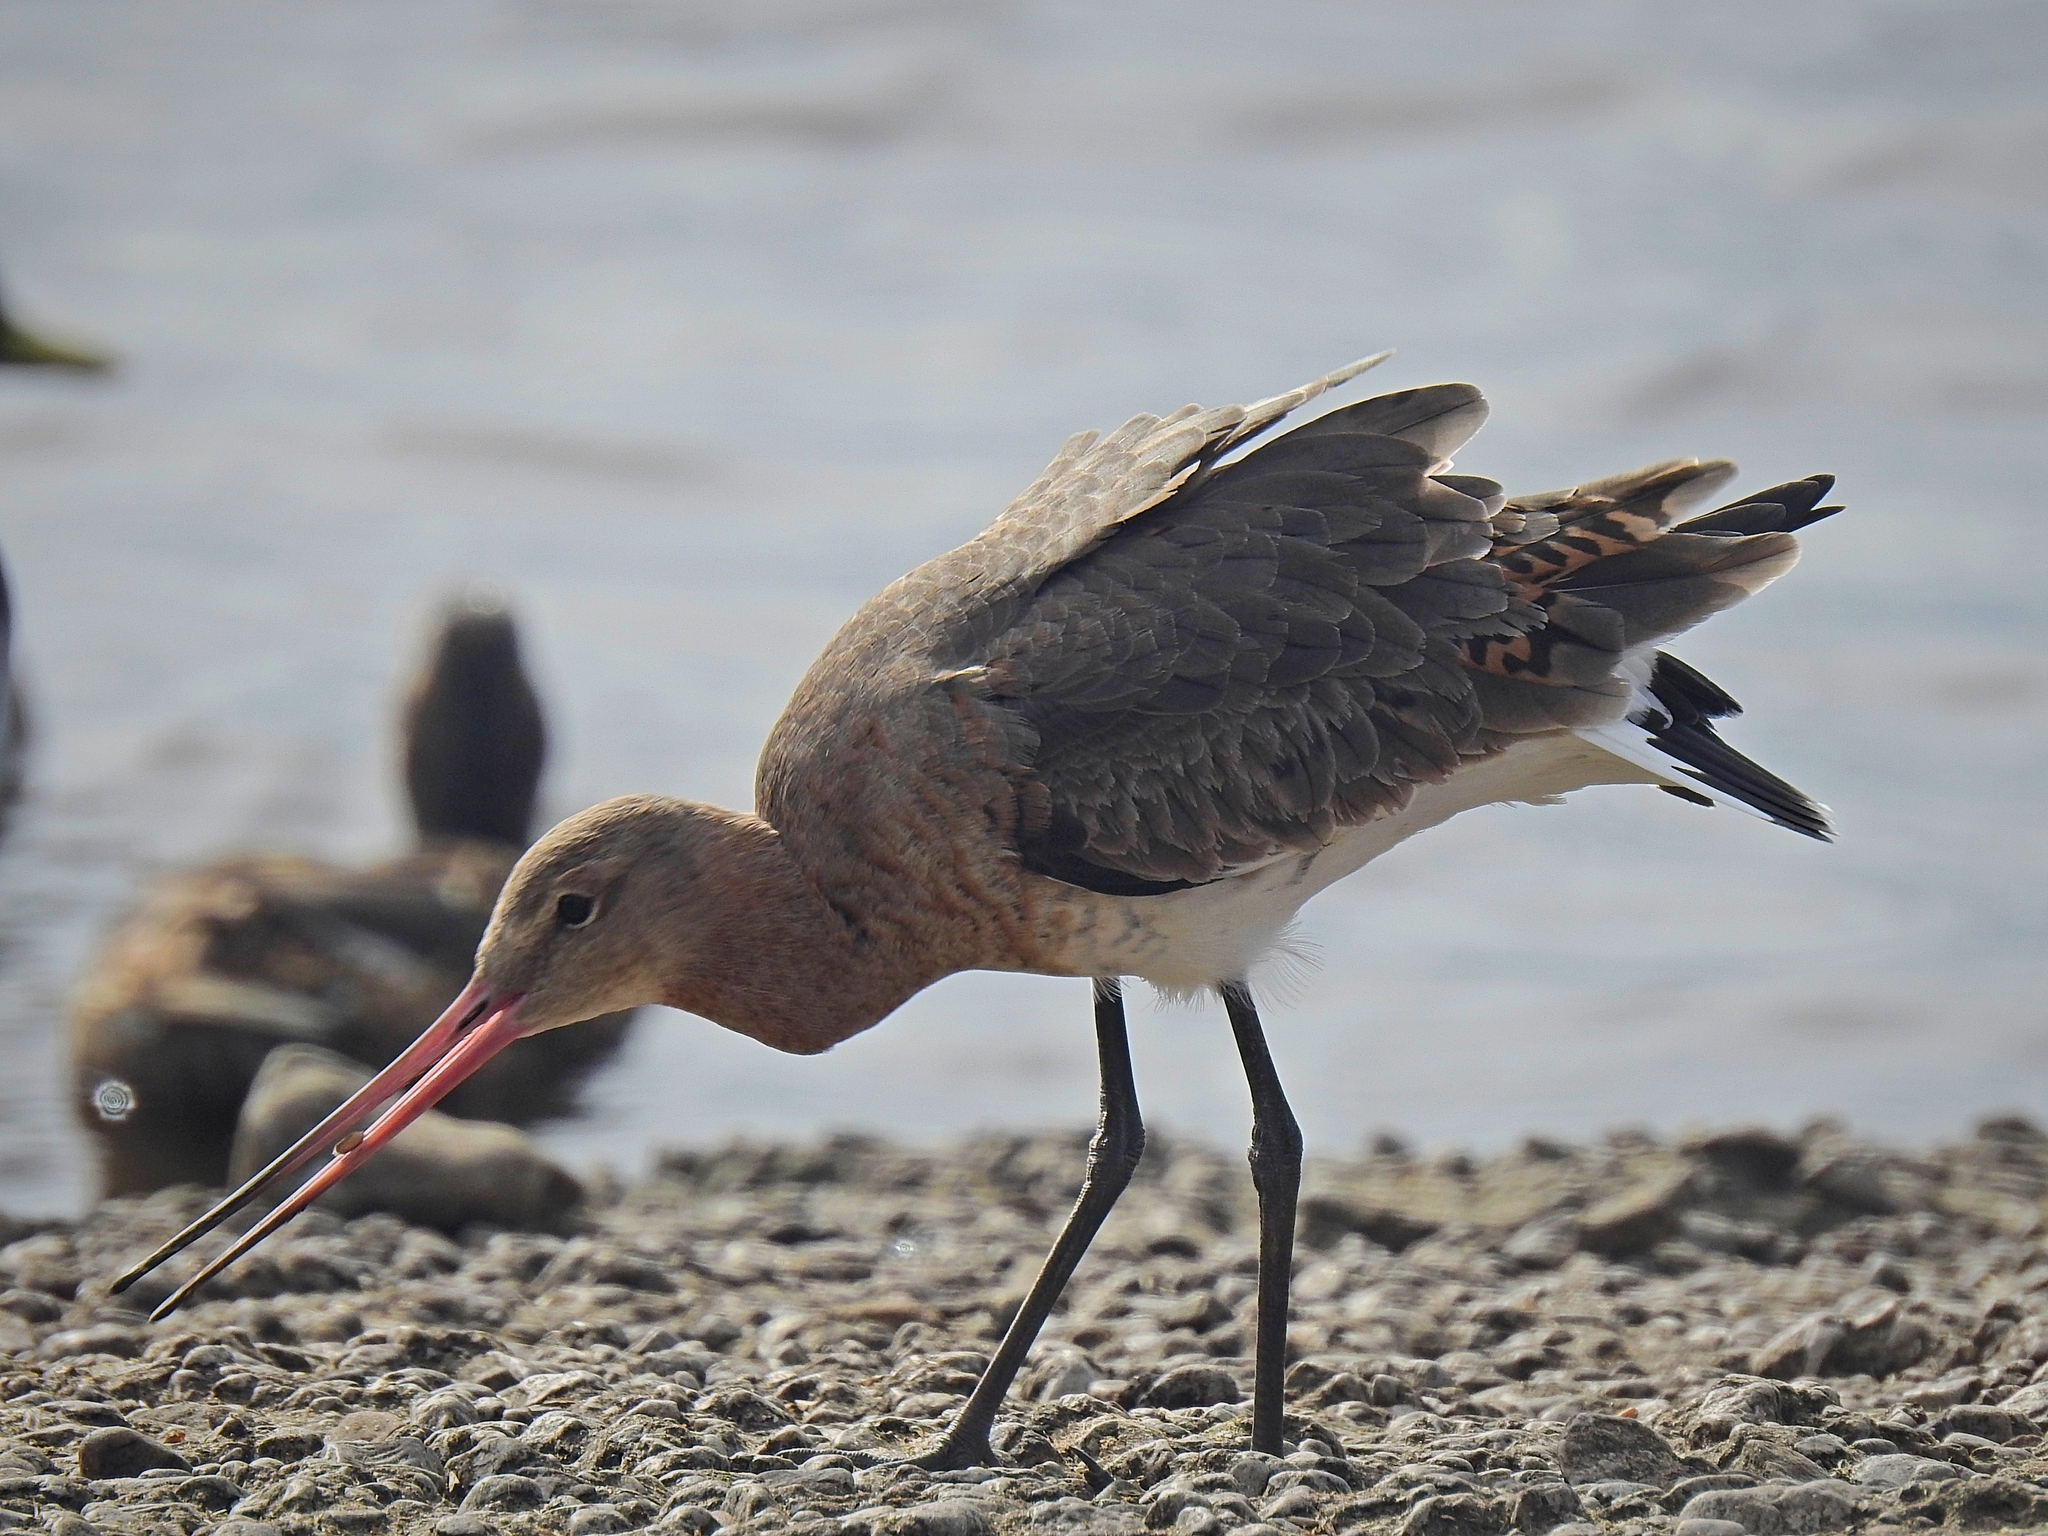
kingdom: Animalia
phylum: Chordata
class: Aves
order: Charadriiformes
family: Scolopacidae
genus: Limosa
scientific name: Limosa limosa
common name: Black-tailed godwit
